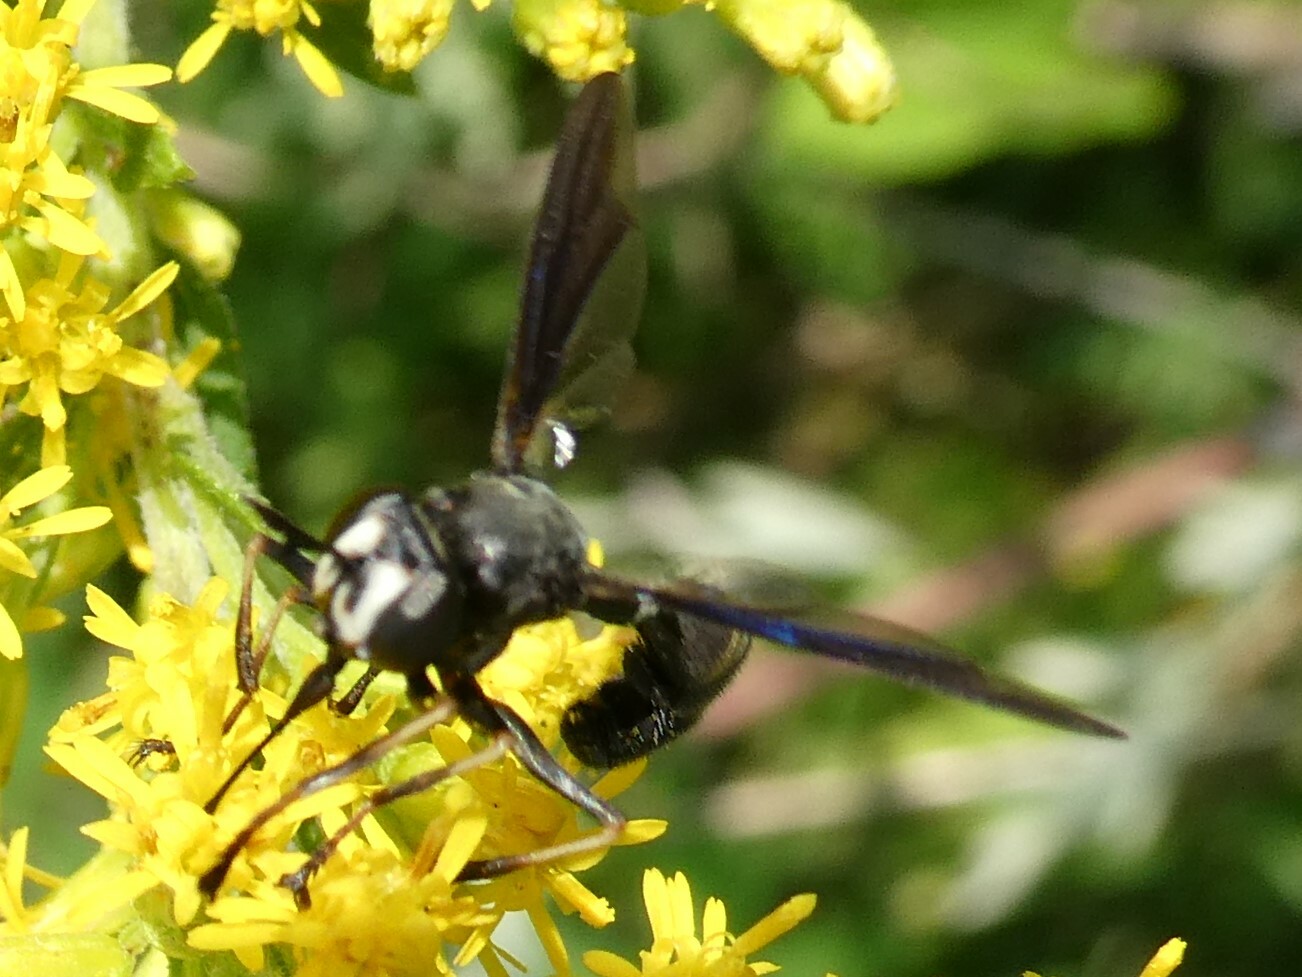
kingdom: Animalia
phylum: Arthropoda
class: Insecta
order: Diptera
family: Conopidae
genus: Physocephala
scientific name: Physocephala tibialis
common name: Common eastern physocephala
